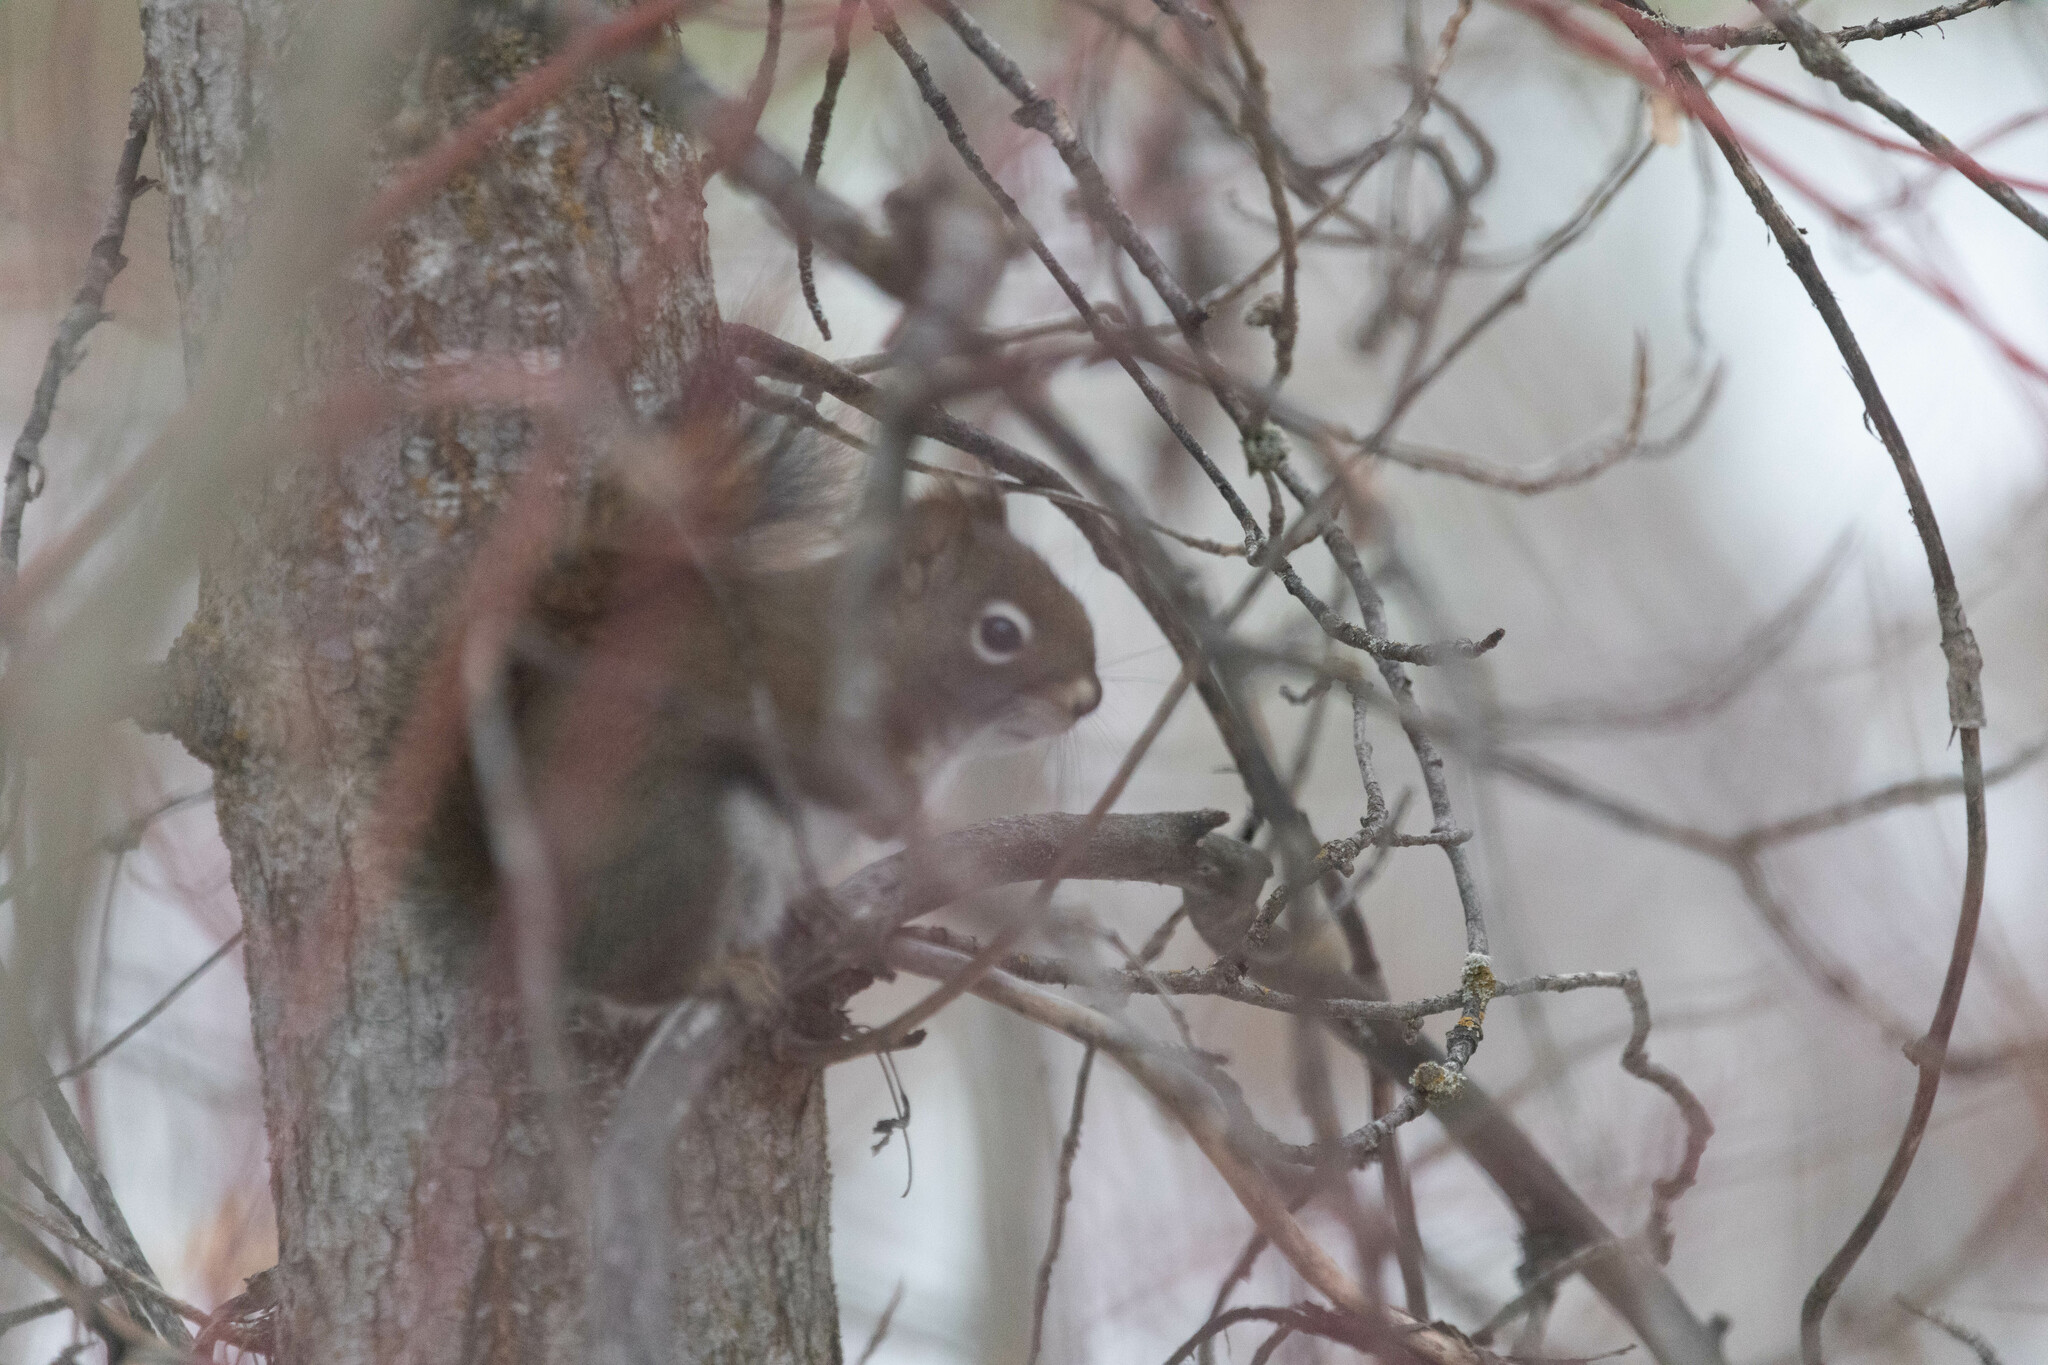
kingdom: Animalia
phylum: Chordata
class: Mammalia
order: Rodentia
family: Sciuridae
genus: Tamiasciurus
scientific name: Tamiasciurus hudsonicus
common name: Red squirrel
